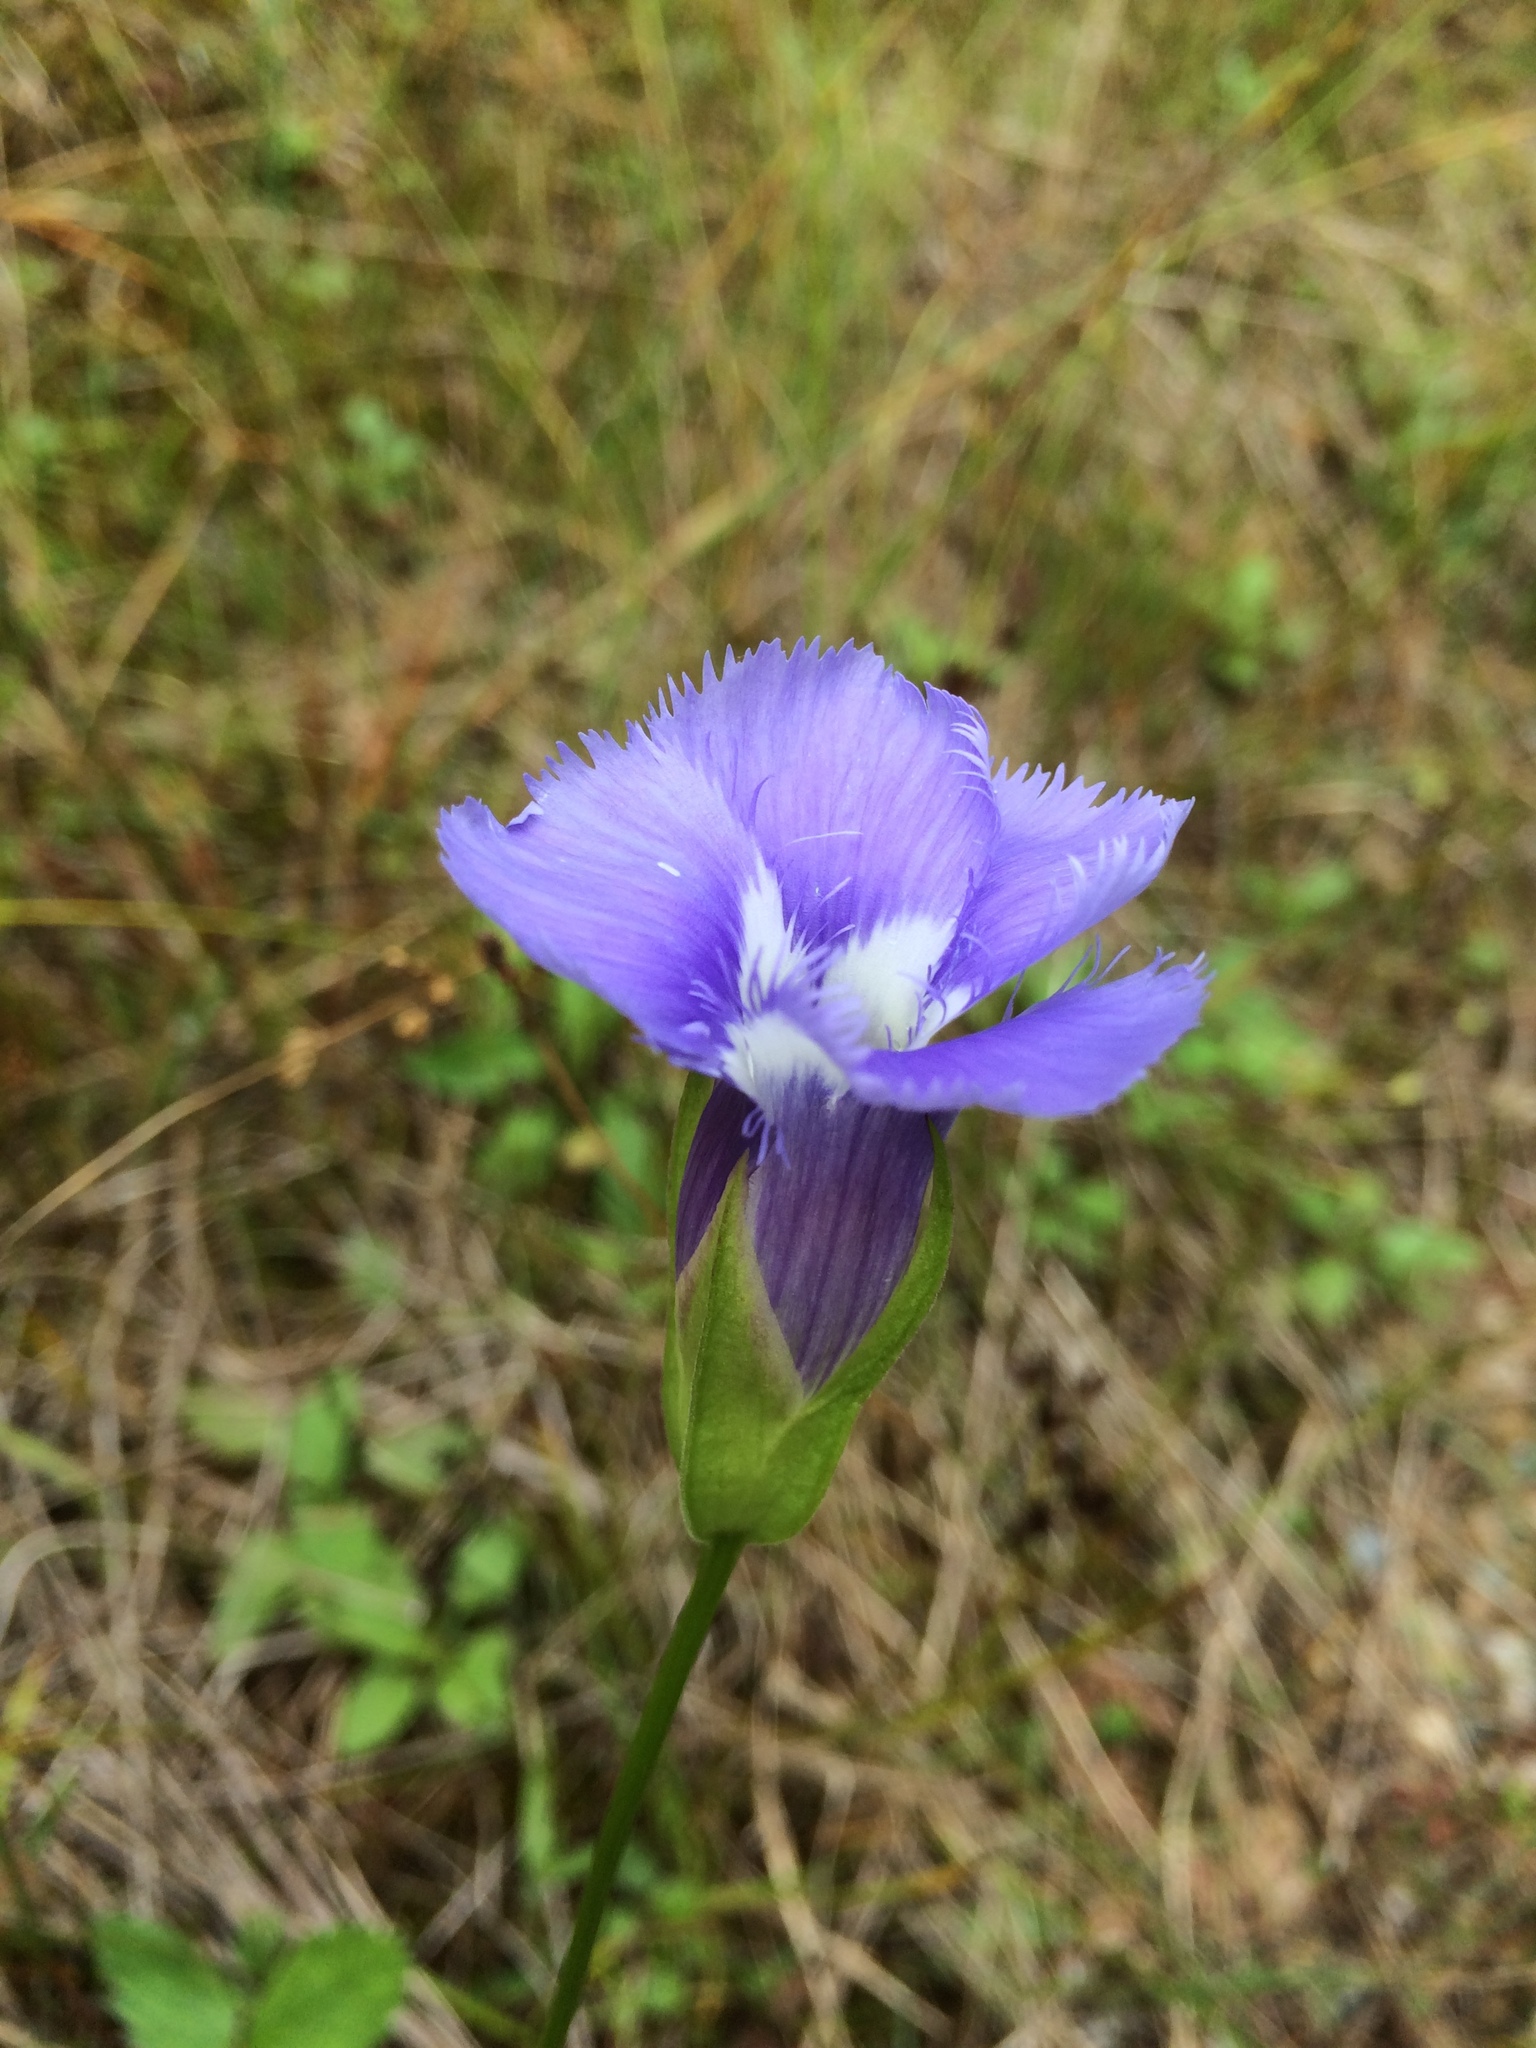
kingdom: Plantae
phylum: Tracheophyta
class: Magnoliopsida
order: Gentianales
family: Gentianaceae
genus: Gentianopsis
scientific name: Gentianopsis virgata
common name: Lesser fringed-gentian
